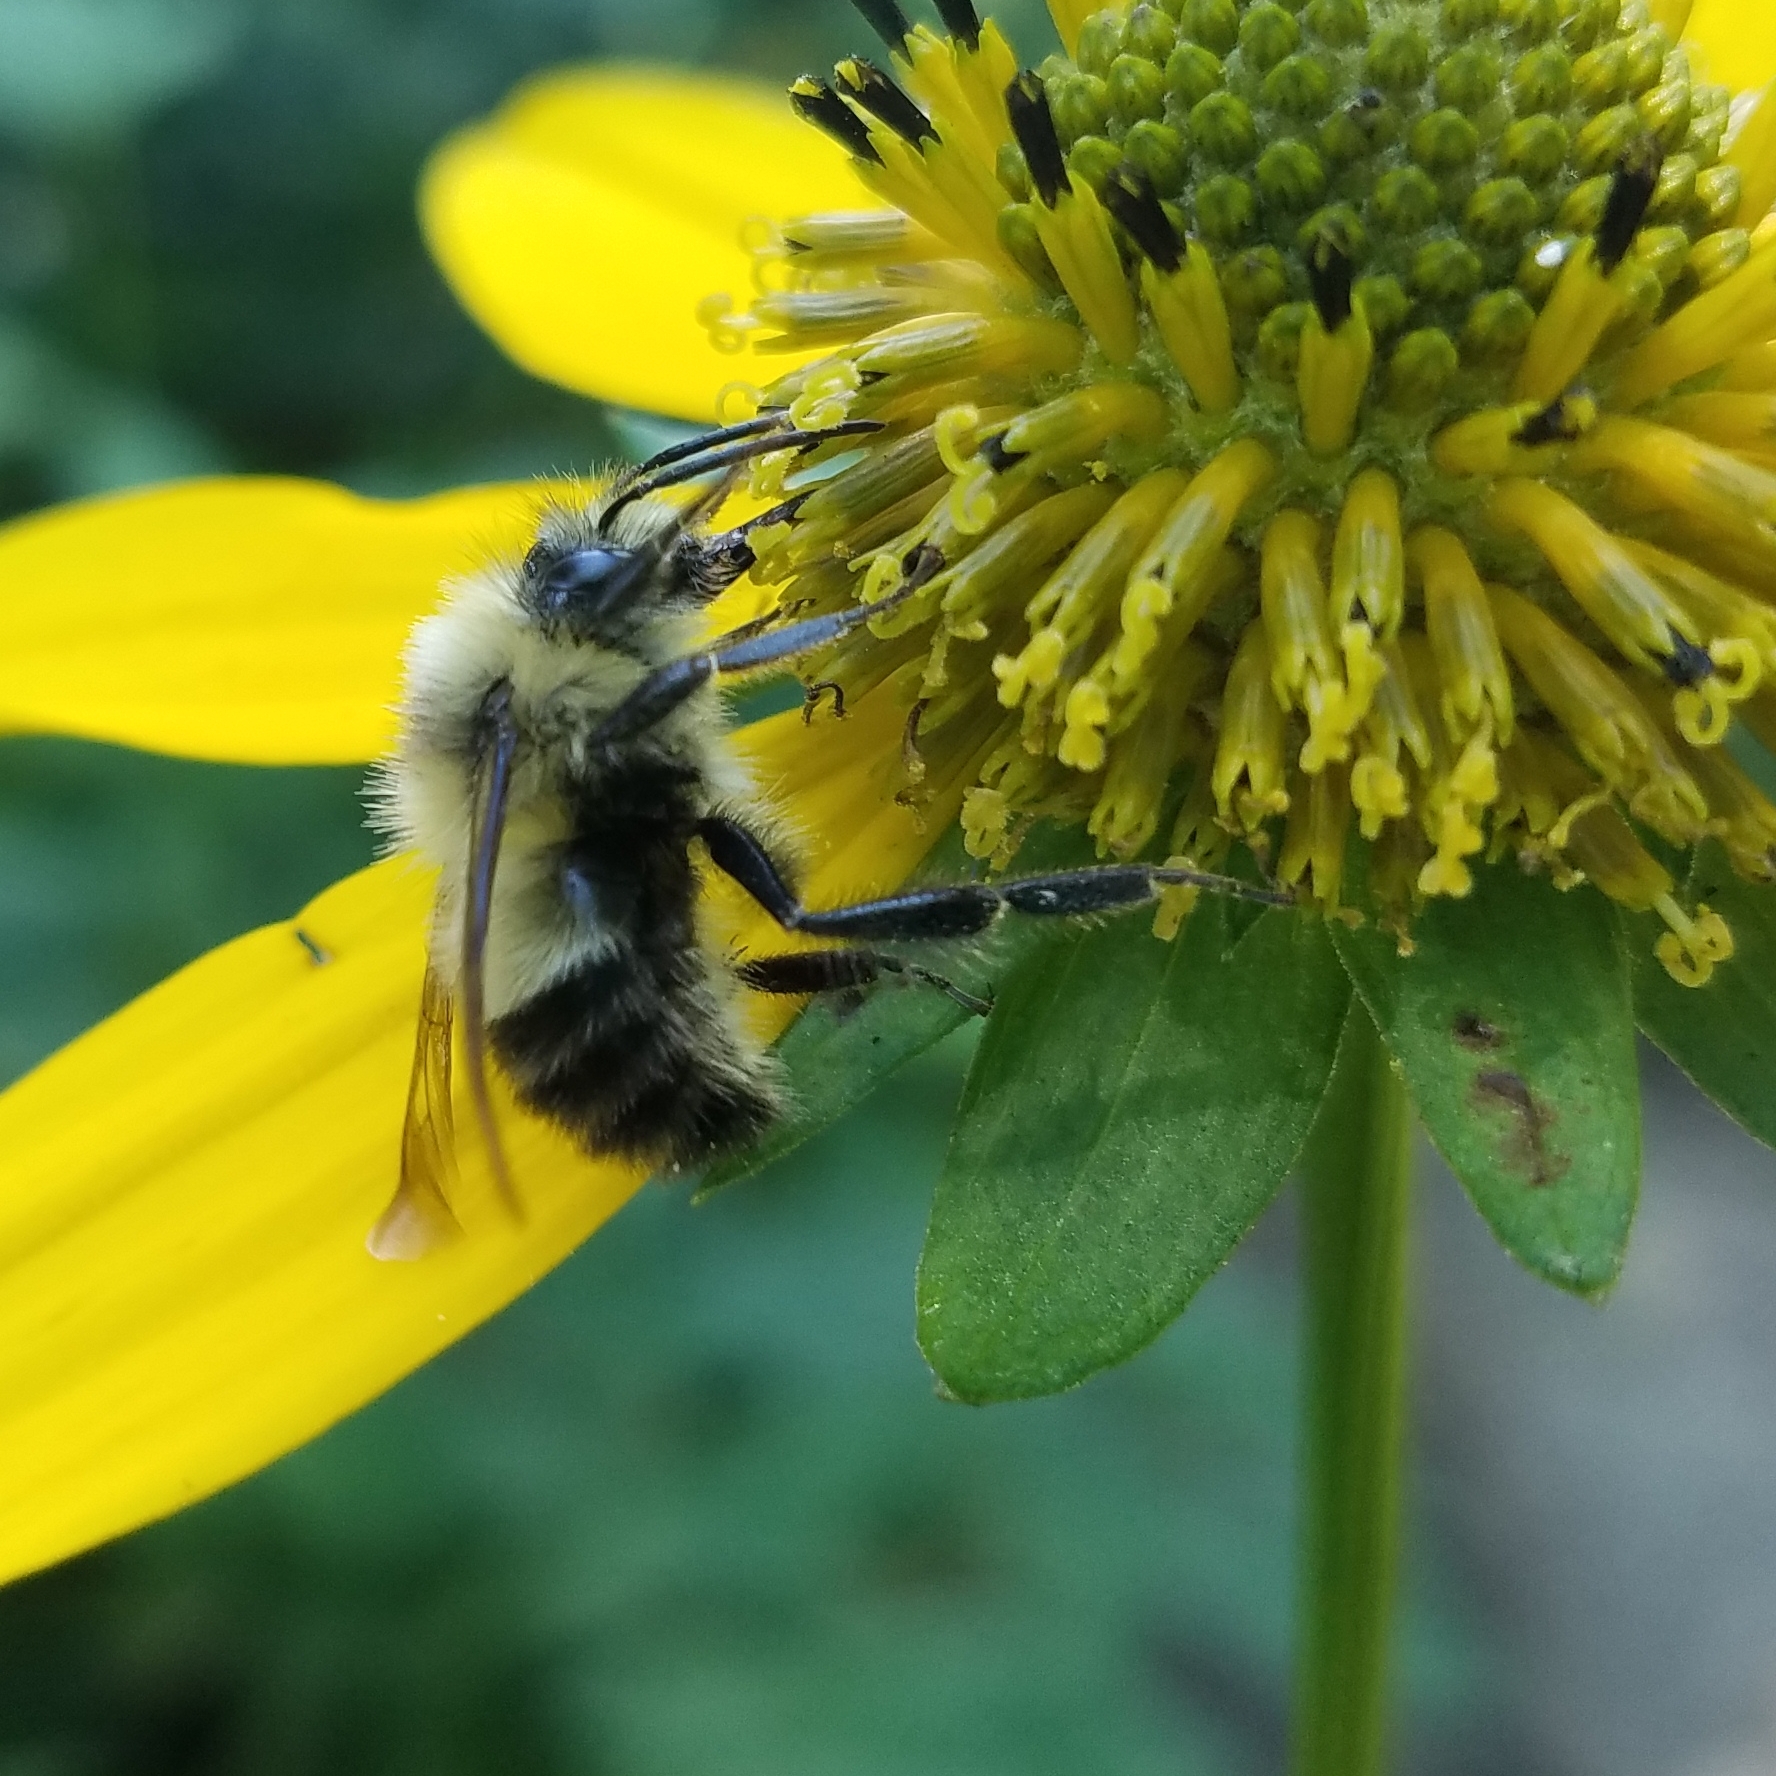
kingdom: Animalia
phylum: Arthropoda
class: Insecta
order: Hymenoptera
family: Apidae
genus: Bombus
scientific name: Bombus impatiens
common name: Common eastern bumble bee
